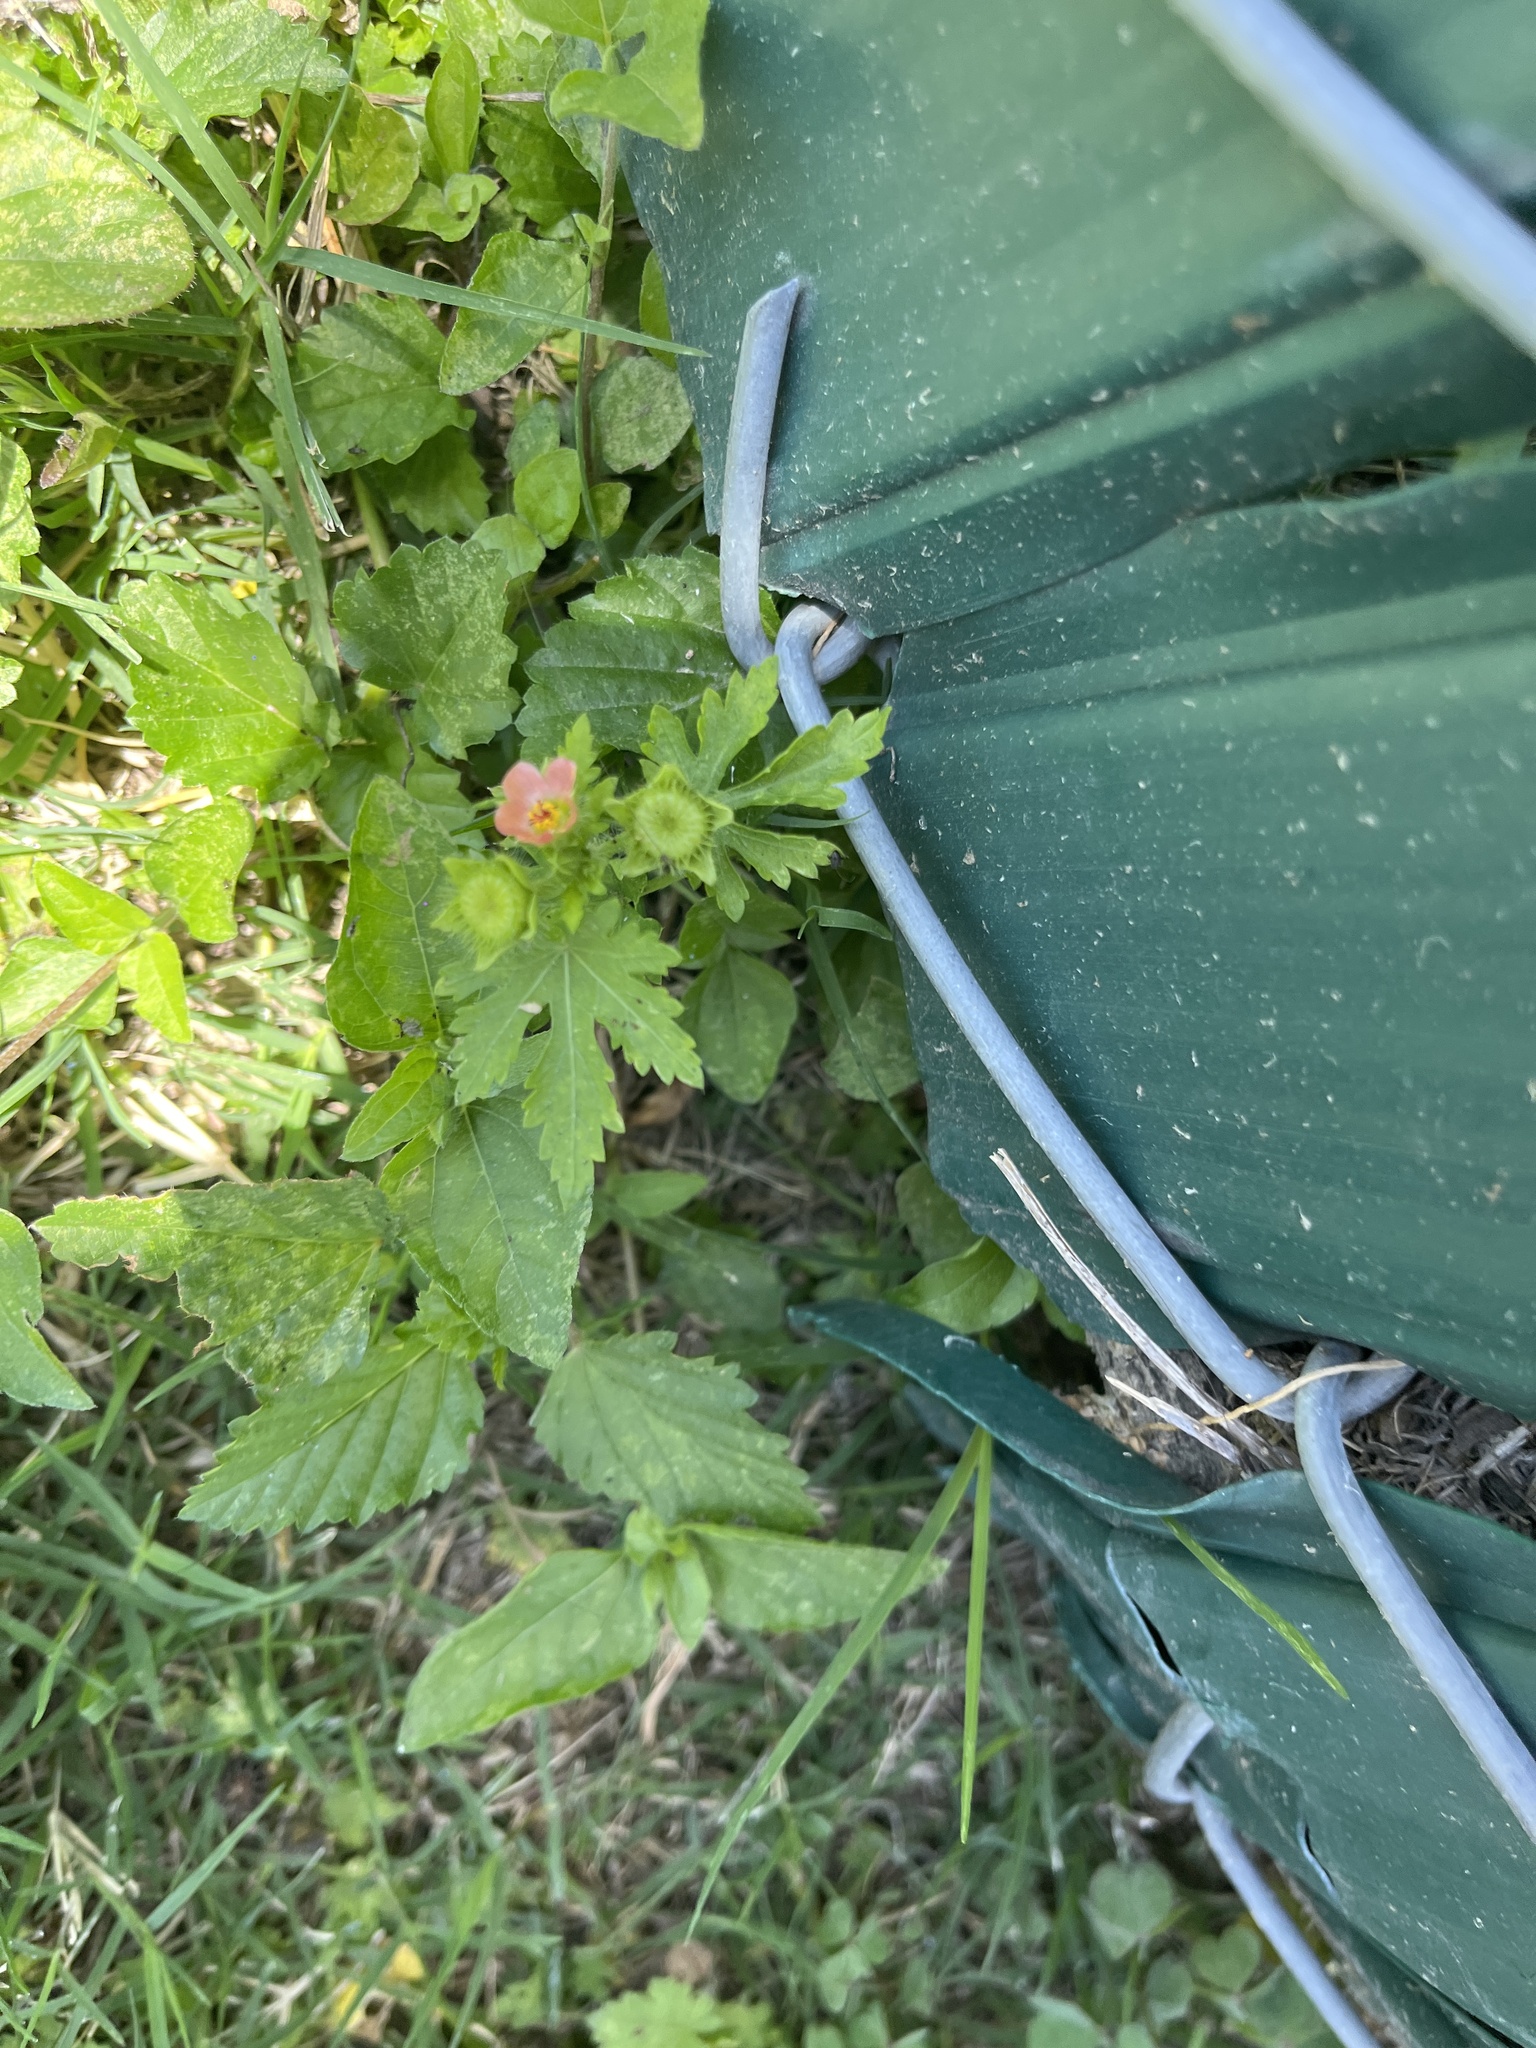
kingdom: Plantae
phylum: Tracheophyta
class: Magnoliopsida
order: Malvales
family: Malvaceae
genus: Modiola
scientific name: Modiola caroliniana
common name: Carolina bristlemallow
